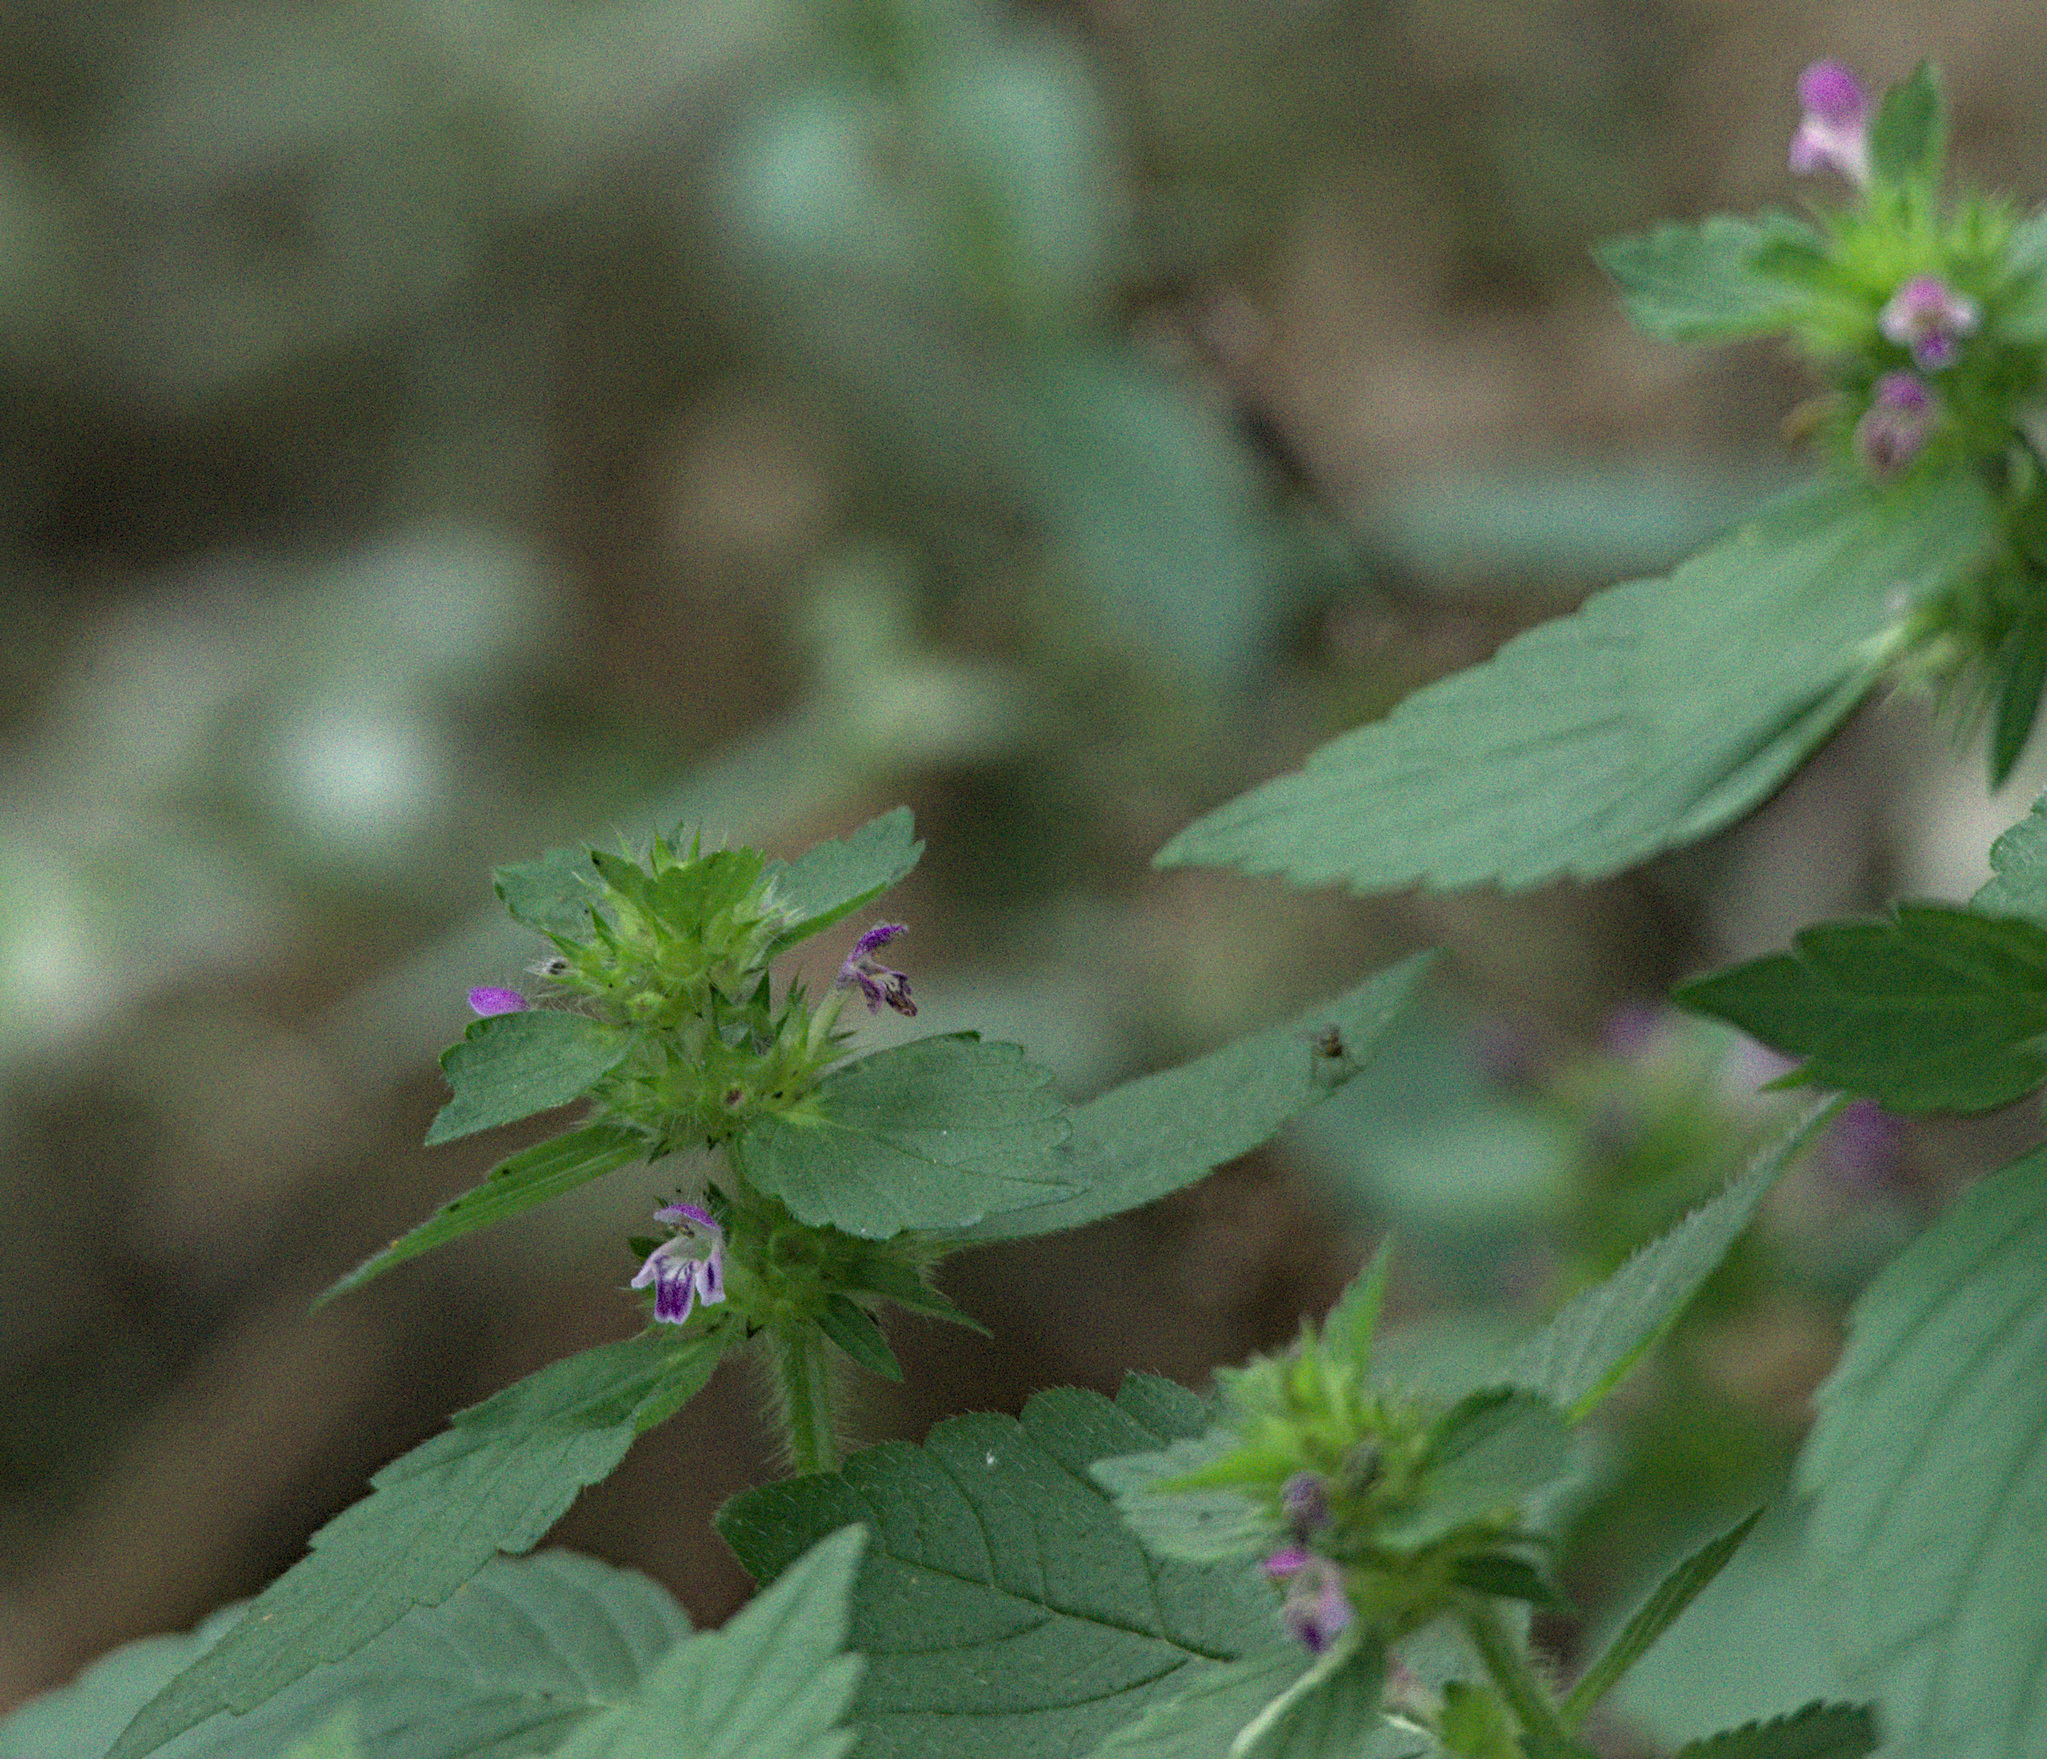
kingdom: Plantae
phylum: Tracheophyta
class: Magnoliopsida
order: Lamiales
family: Lamiaceae
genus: Galeopsis
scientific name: Galeopsis bifida
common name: Bifid hemp-nettle
